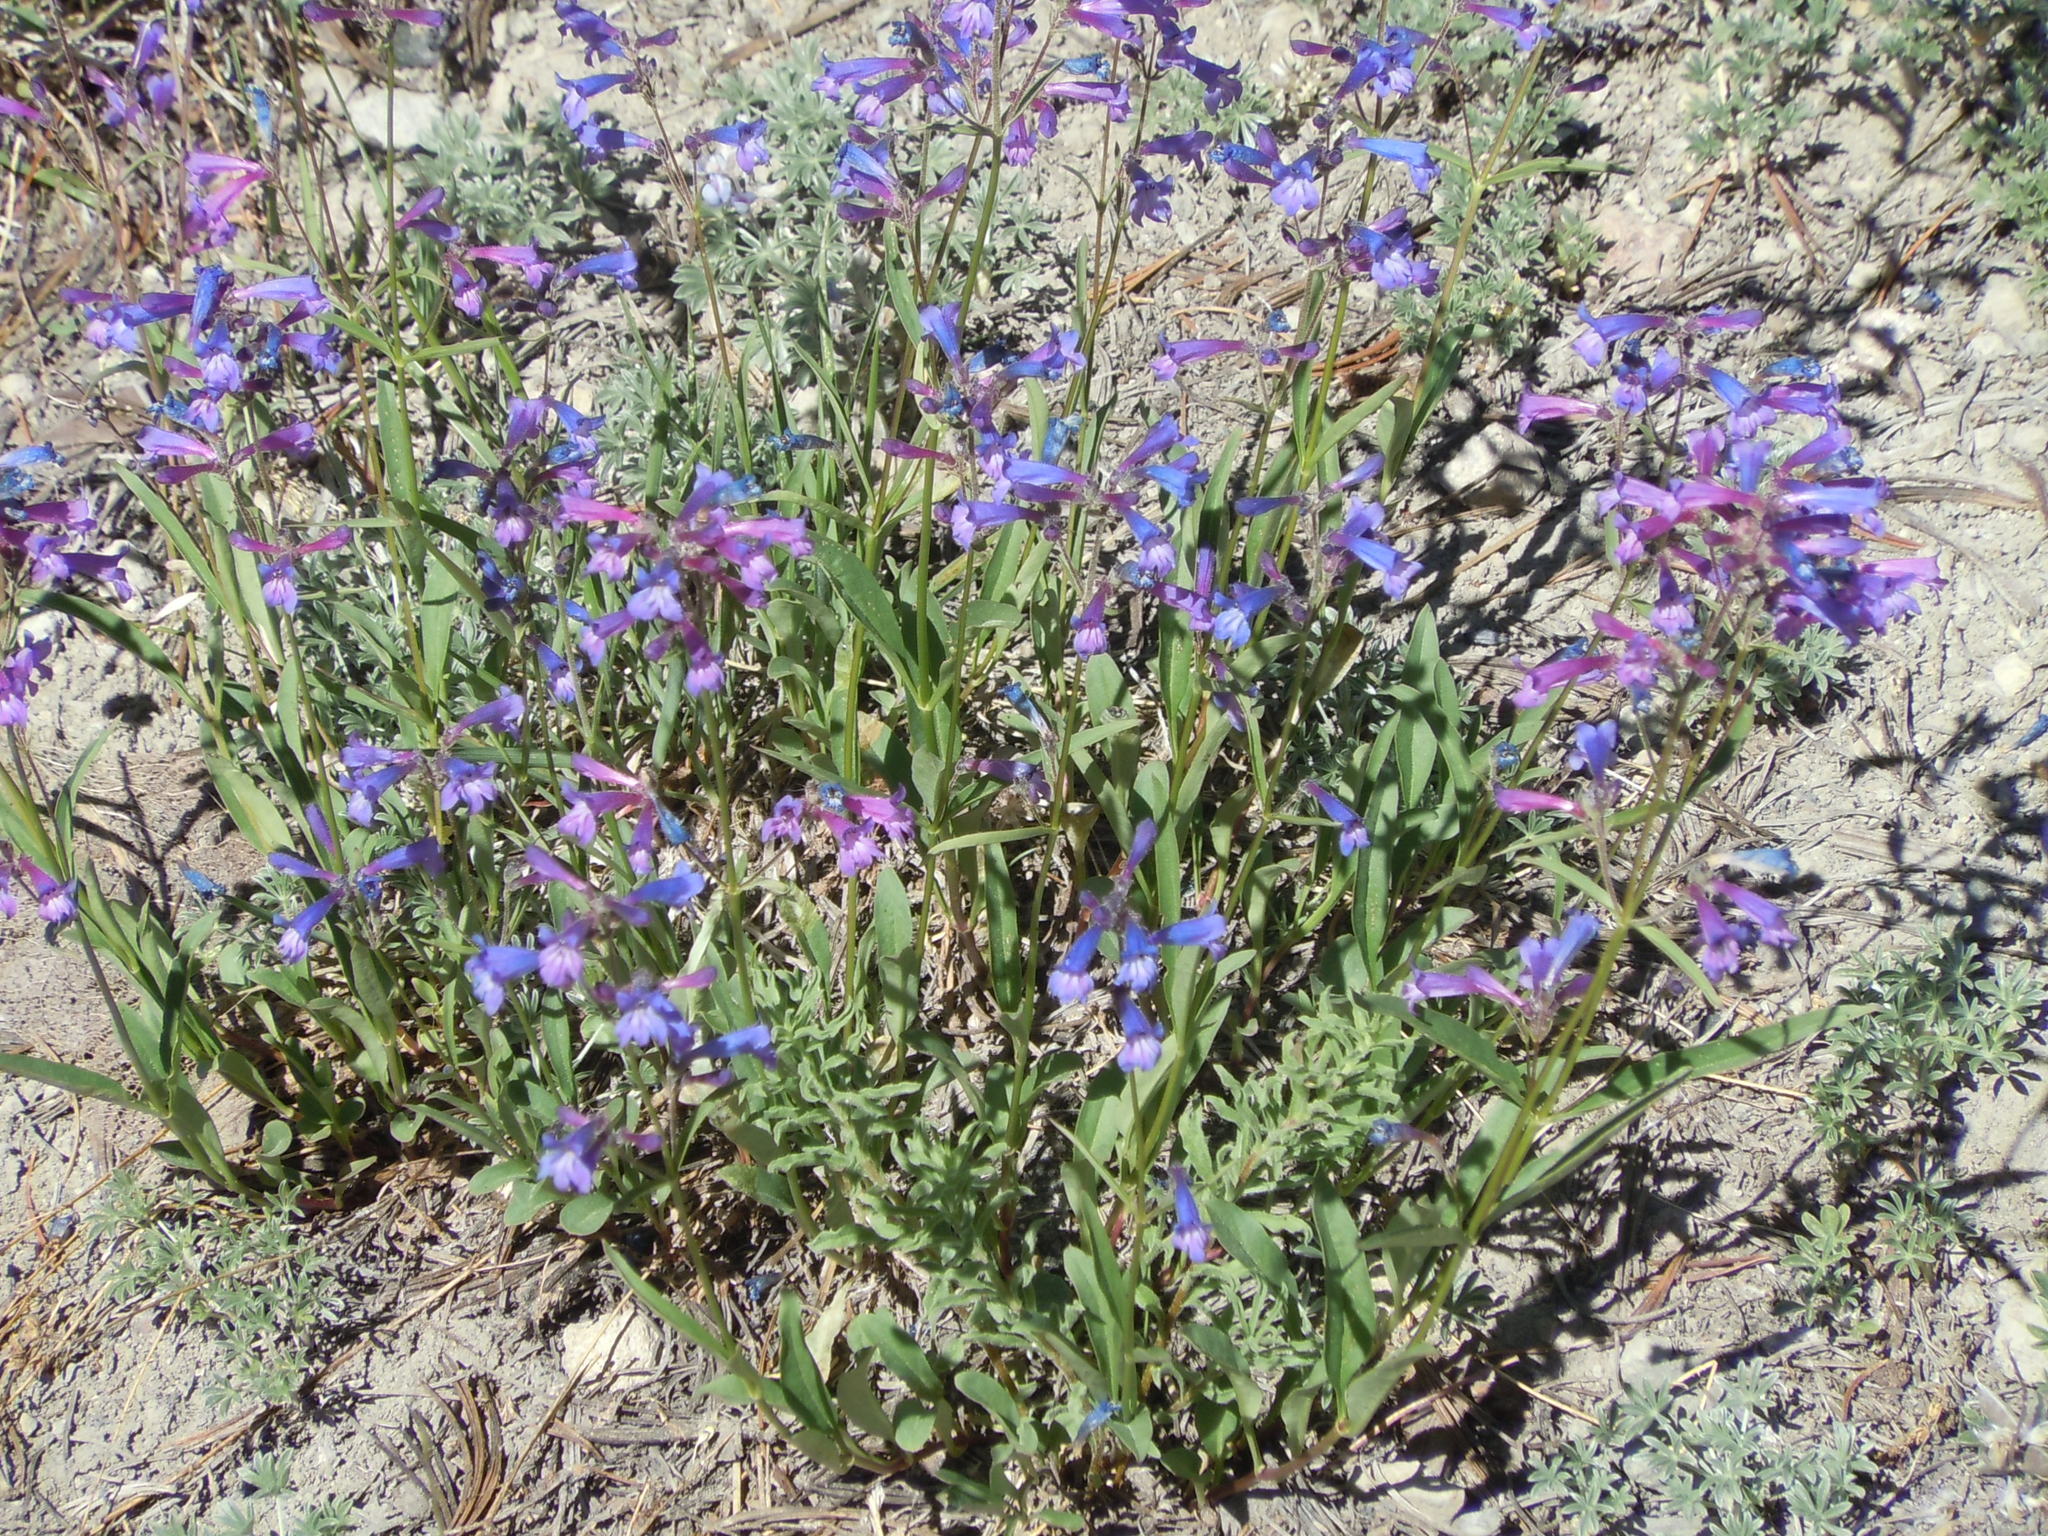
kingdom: Plantae
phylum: Tracheophyta
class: Magnoliopsida
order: Lamiales
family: Plantaginaceae
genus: Penstemon
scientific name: Penstemon speciosus
